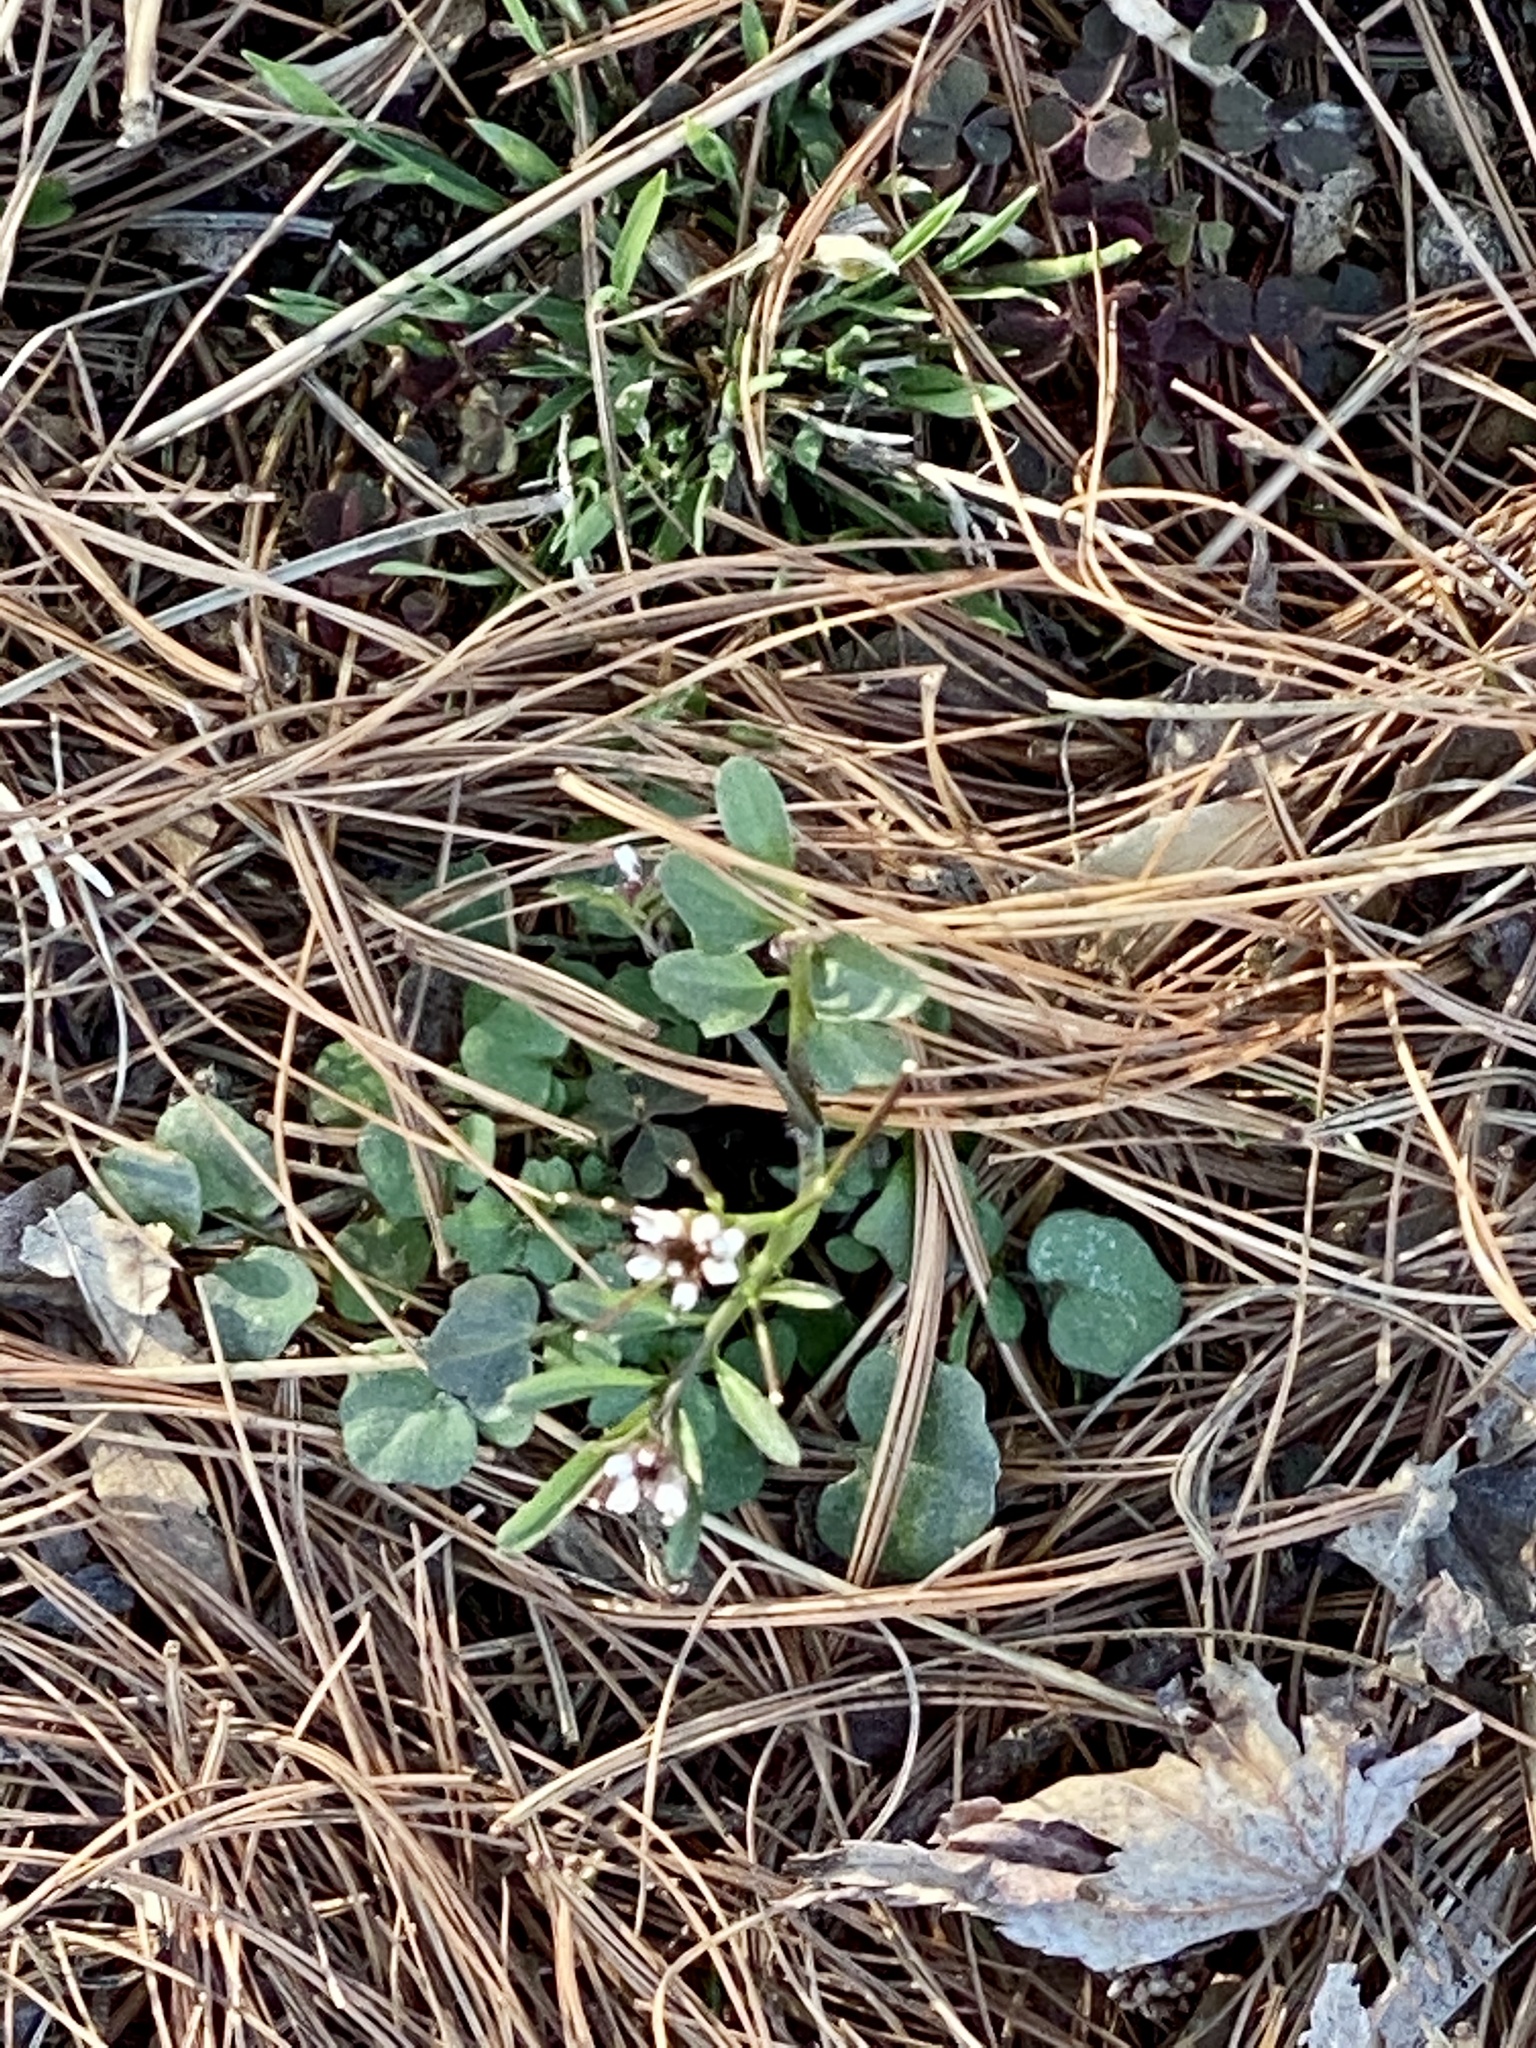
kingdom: Plantae
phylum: Tracheophyta
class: Magnoliopsida
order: Brassicales
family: Brassicaceae
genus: Cardamine
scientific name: Cardamine hirsuta
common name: Hairy bittercress
